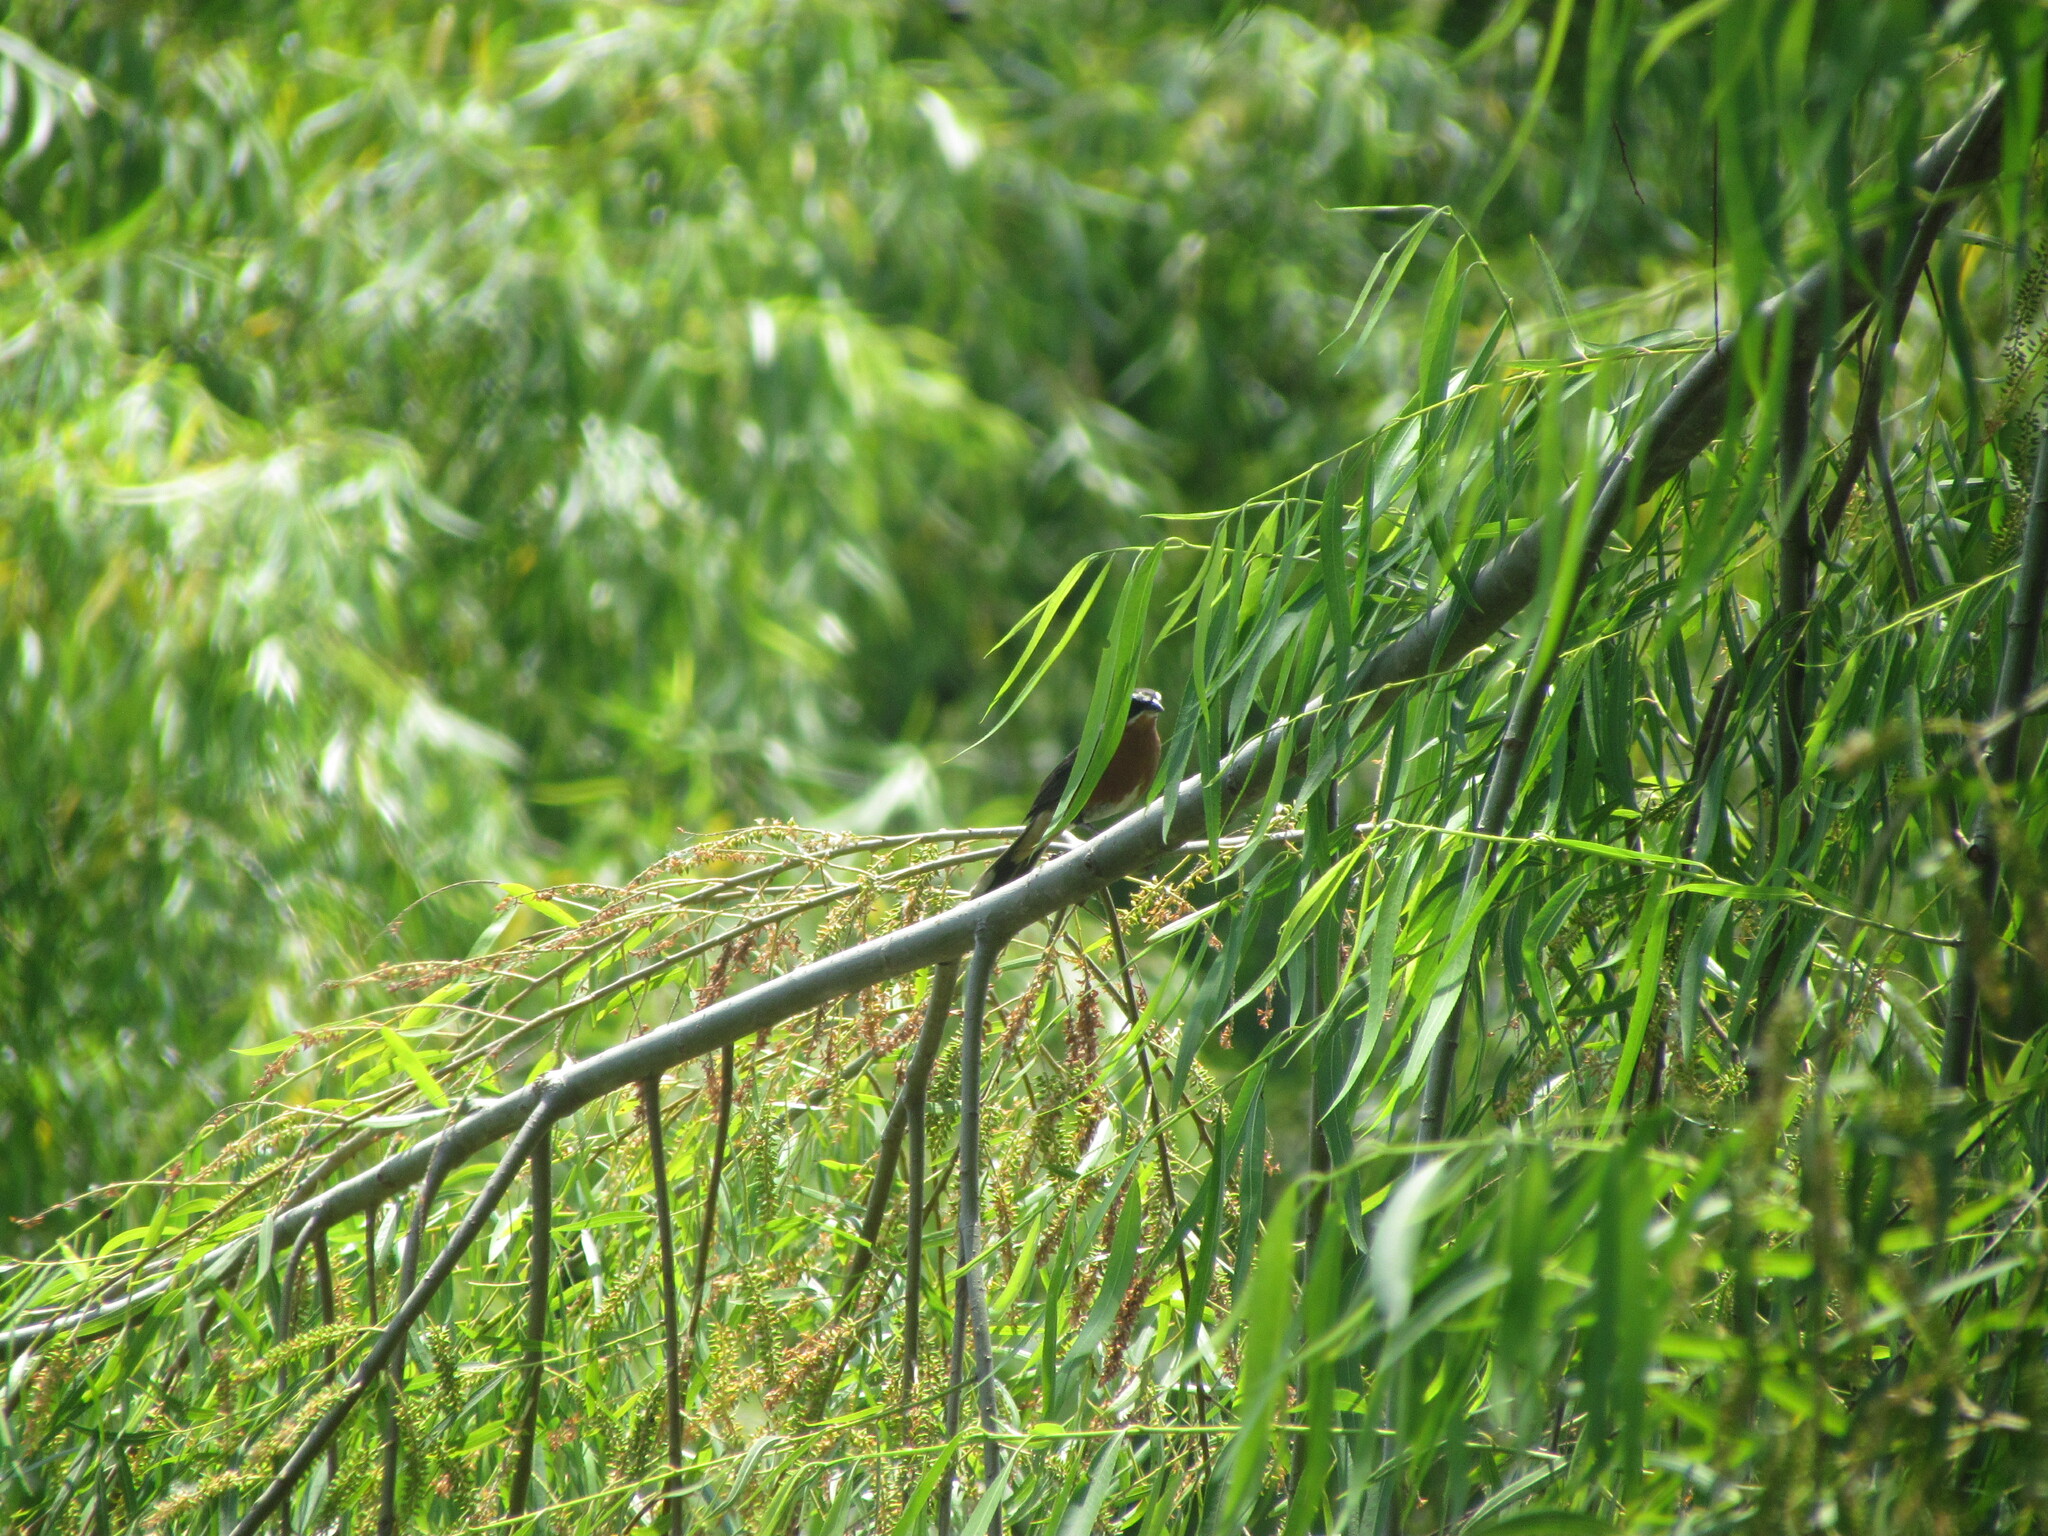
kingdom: Animalia
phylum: Chordata
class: Aves
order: Passeriformes
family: Thraupidae
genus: Poospiza
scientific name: Poospiza nigrorufa
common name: Black-and-rufous warbling finch
